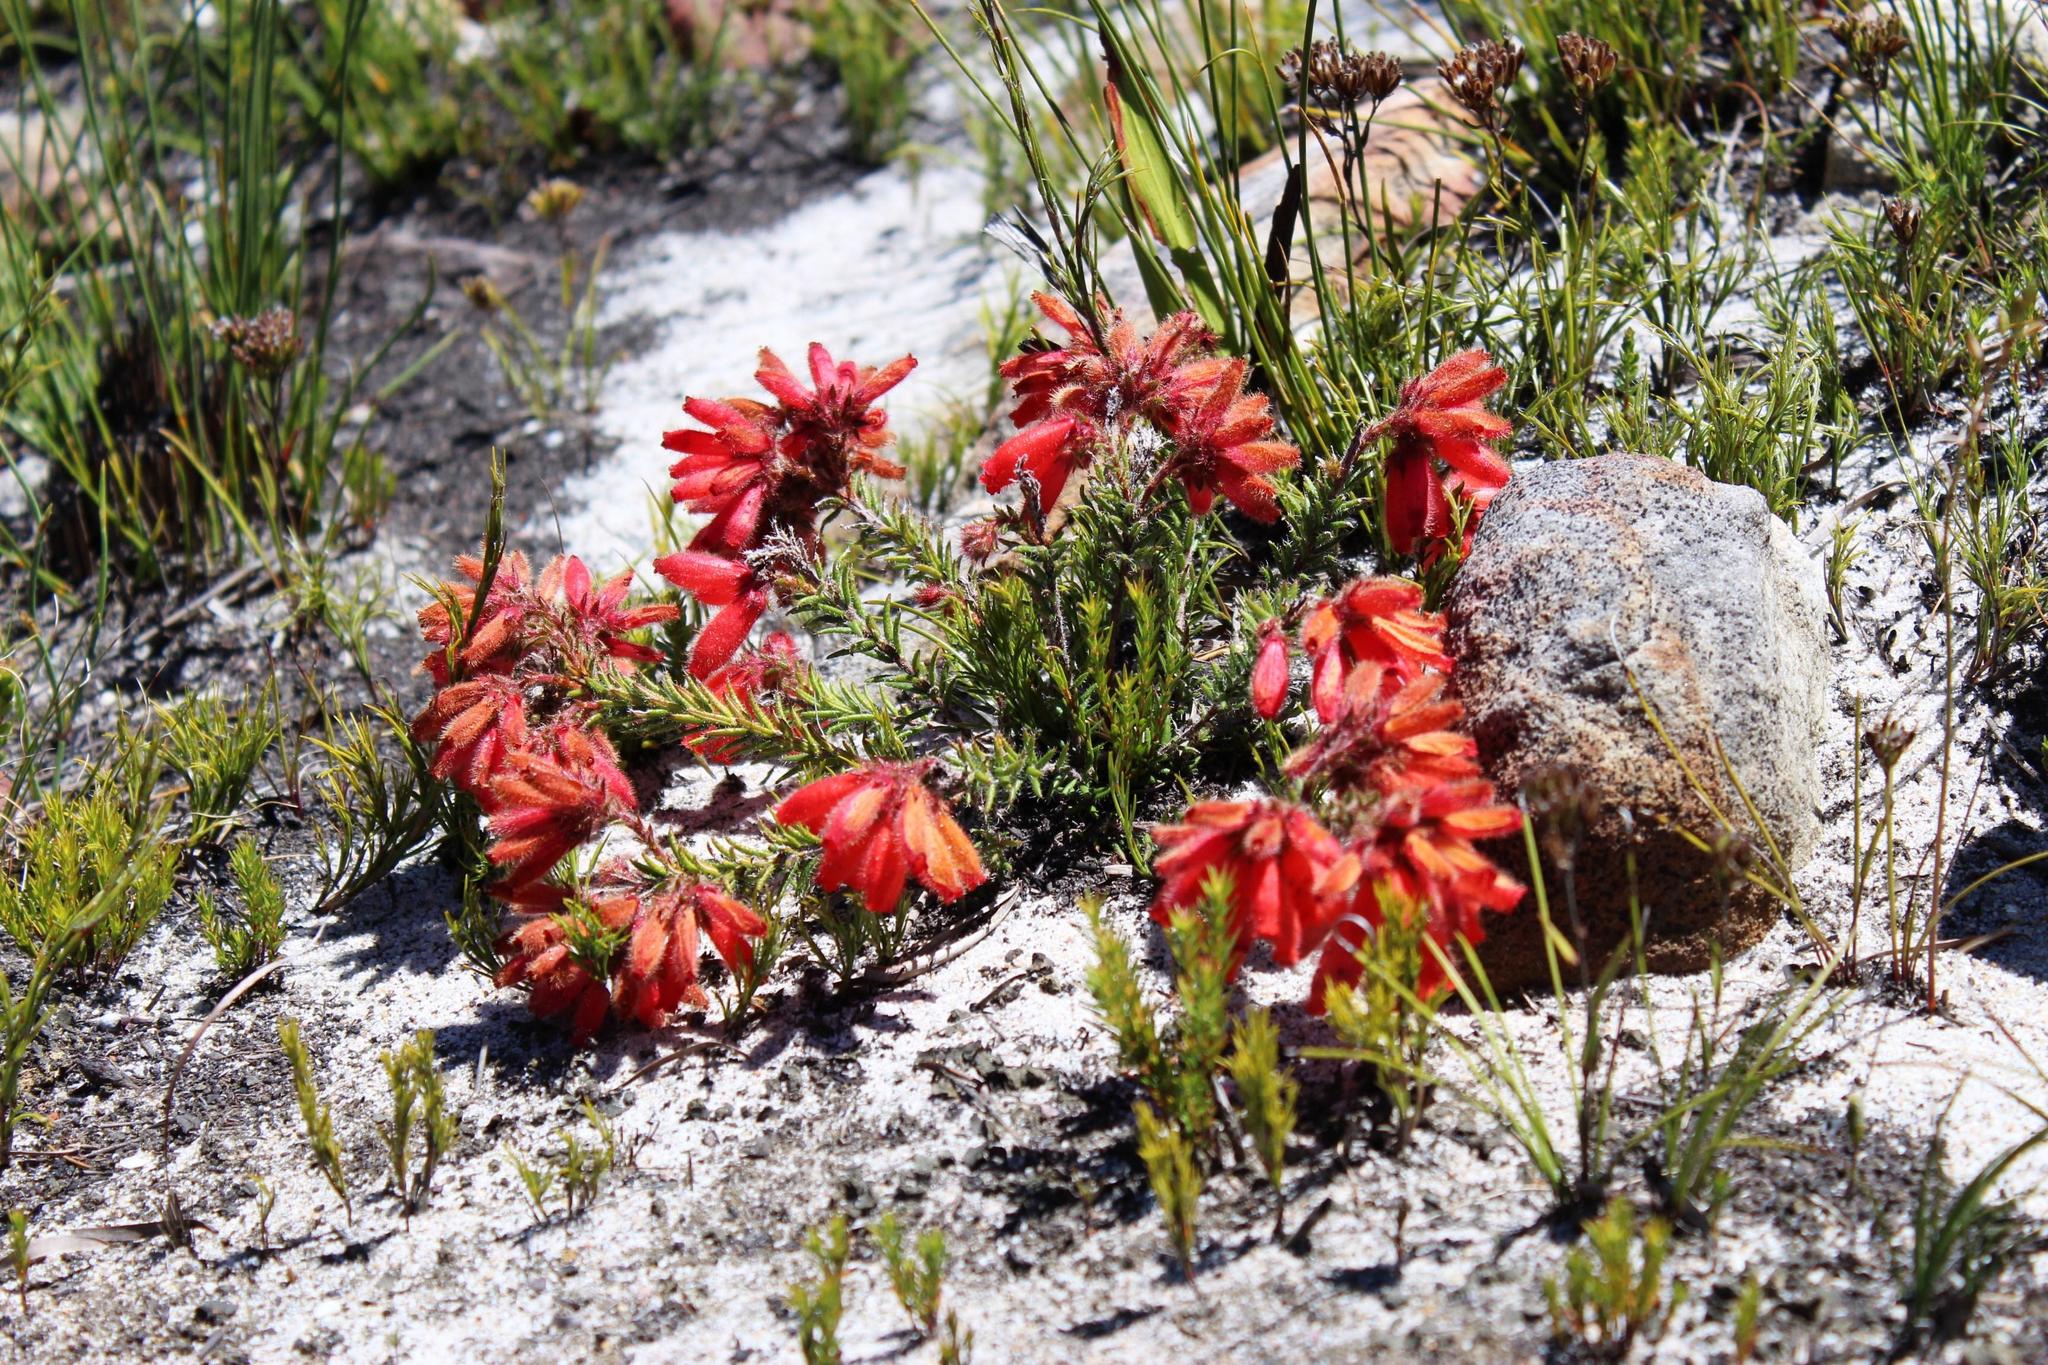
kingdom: Plantae
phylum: Tracheophyta
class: Magnoliopsida
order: Ericales
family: Ericaceae
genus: Erica
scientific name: Erica cerinthoides
